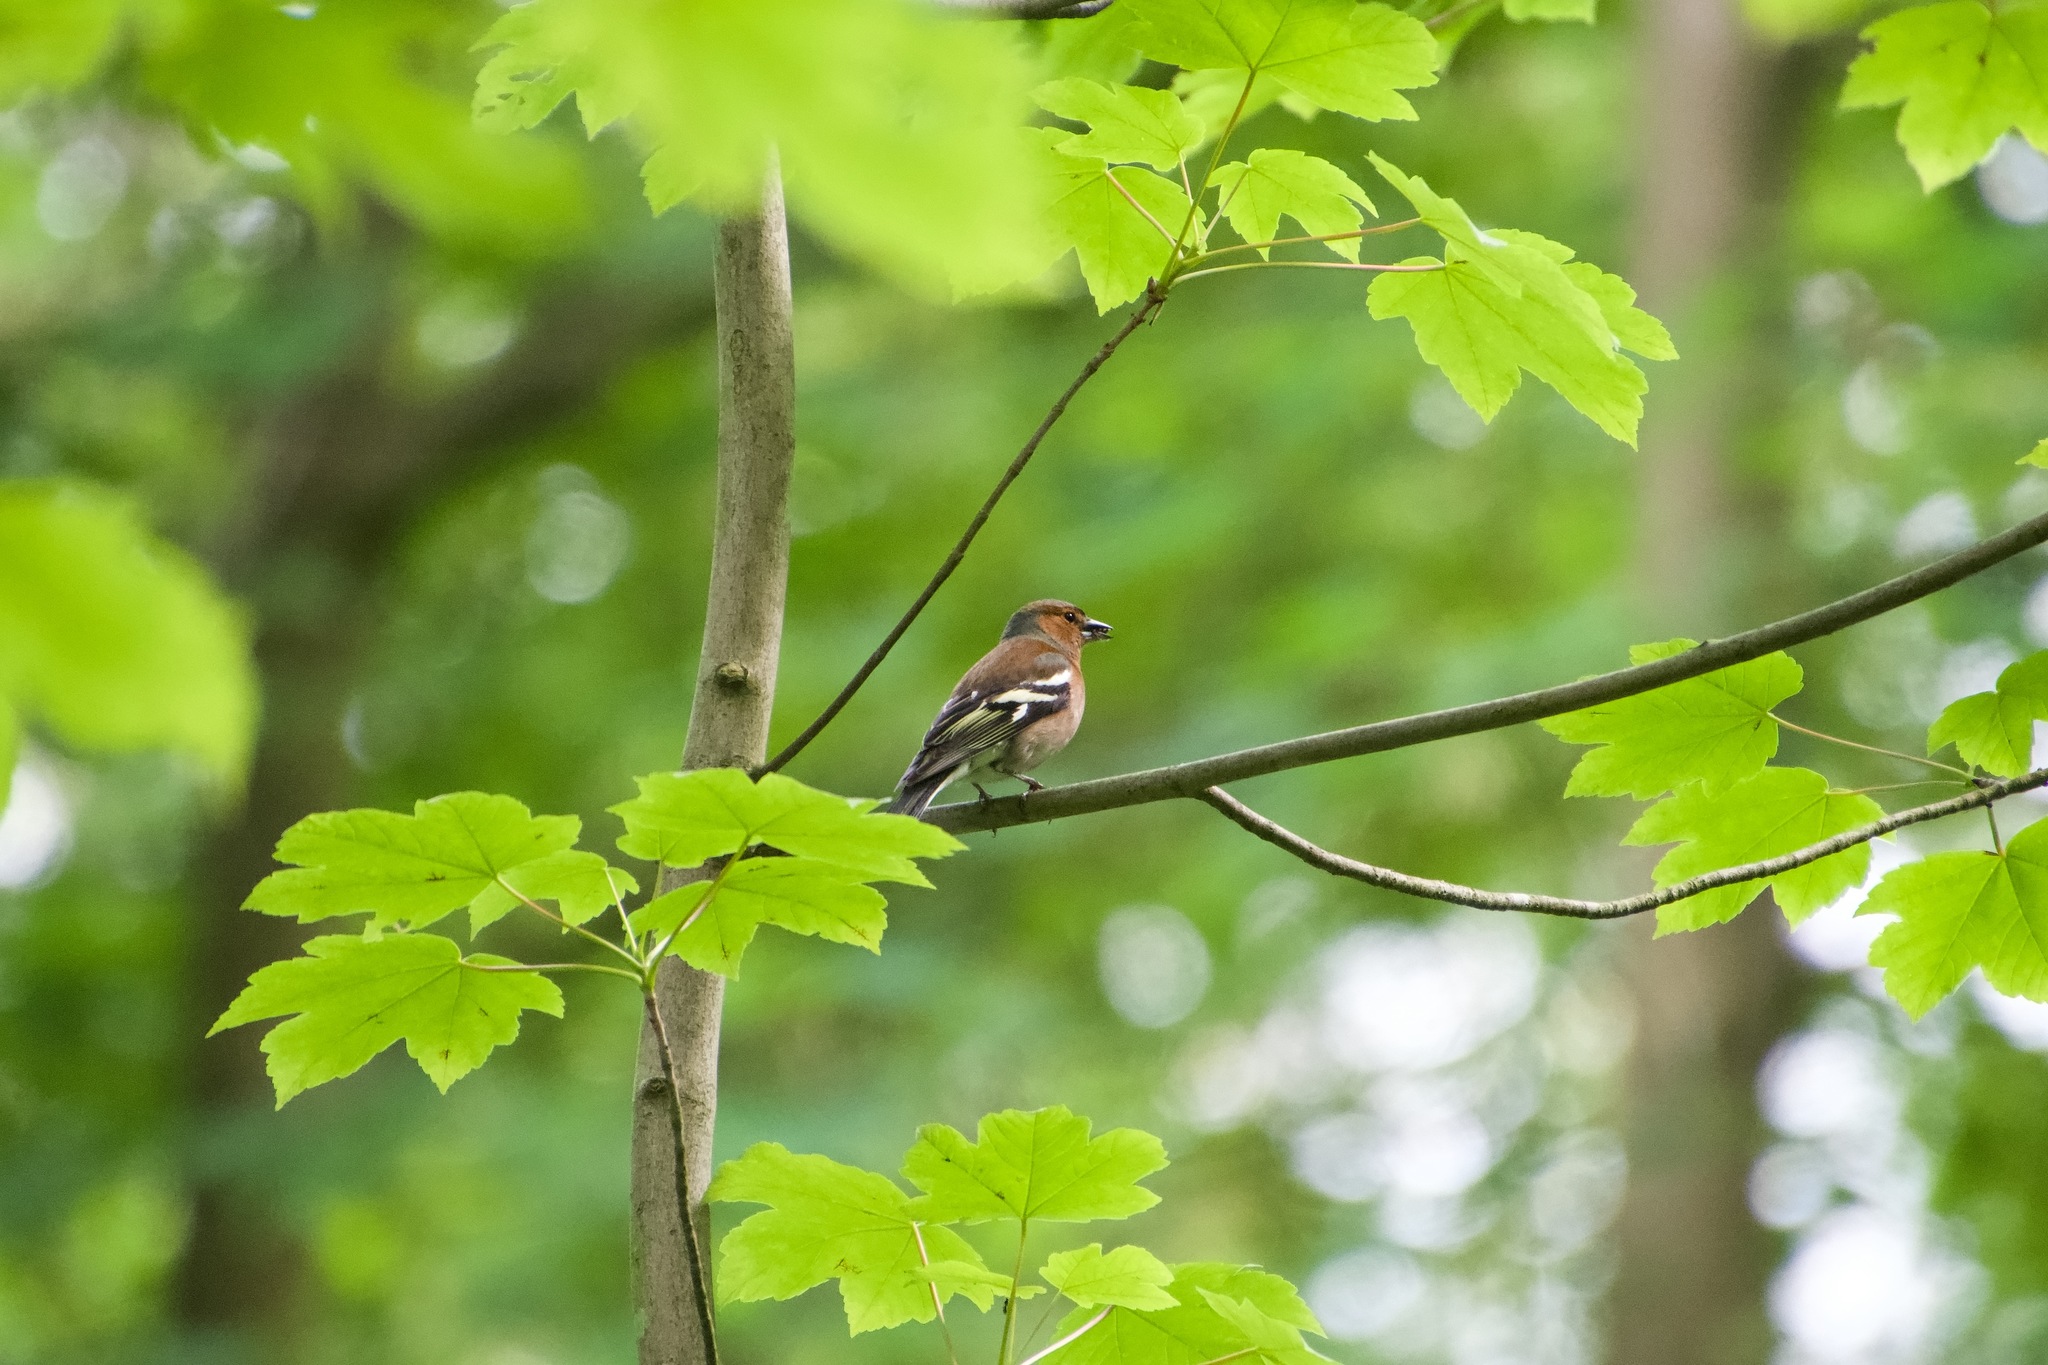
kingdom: Animalia
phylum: Chordata
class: Aves
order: Passeriformes
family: Fringillidae
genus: Fringilla
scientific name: Fringilla coelebs
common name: Common chaffinch
